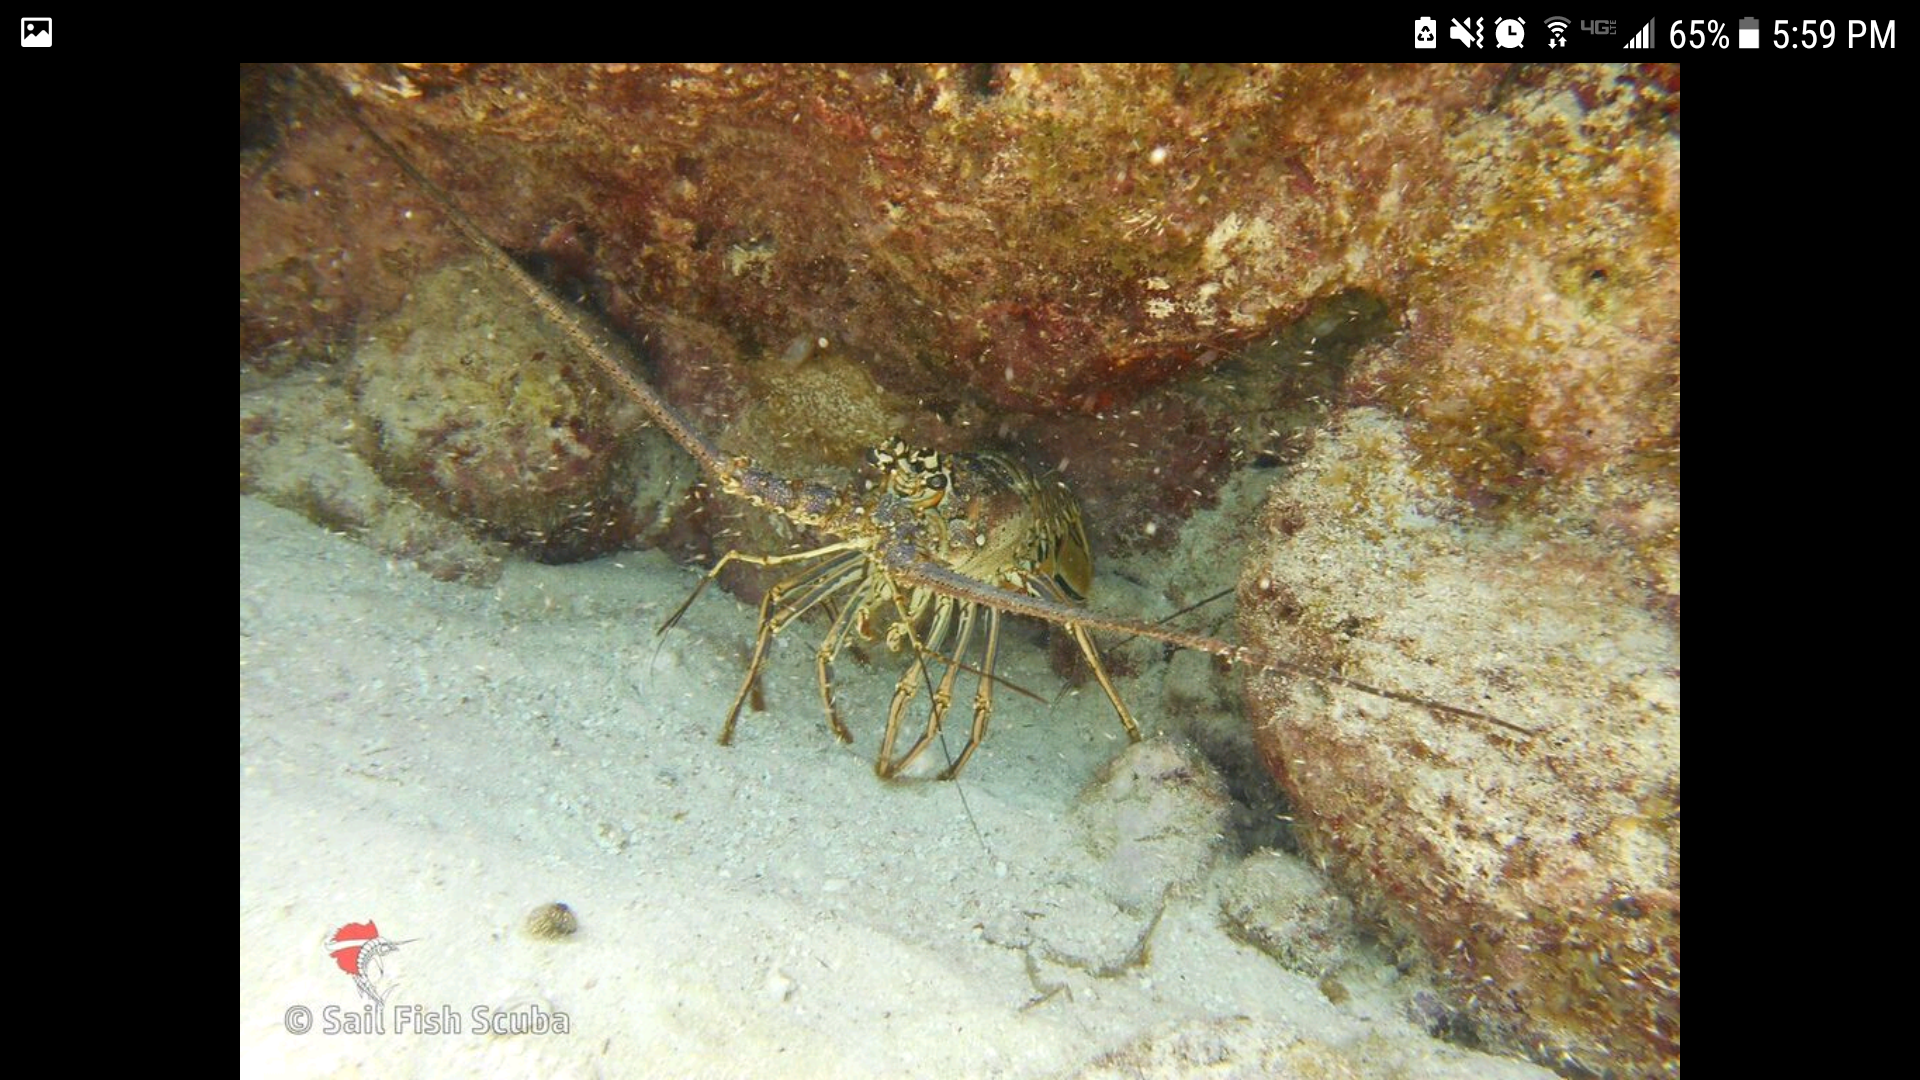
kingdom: Animalia
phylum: Arthropoda
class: Malacostraca
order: Decapoda
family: Palinuridae
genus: Panulirus
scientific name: Panulirus argus
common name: Caribbean spiny lobster
